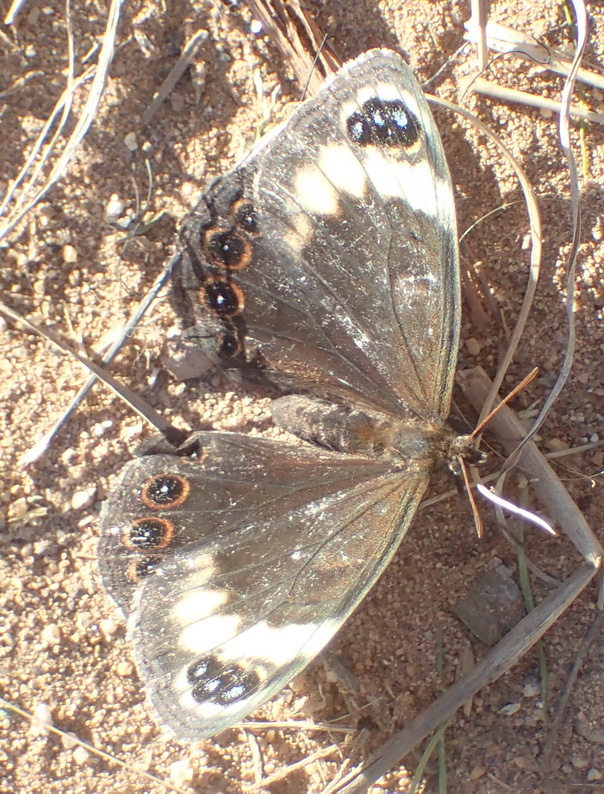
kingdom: Animalia
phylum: Arthropoda
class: Insecta
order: Lepidoptera
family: Nymphalidae
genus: Dira
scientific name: Dira clytus
